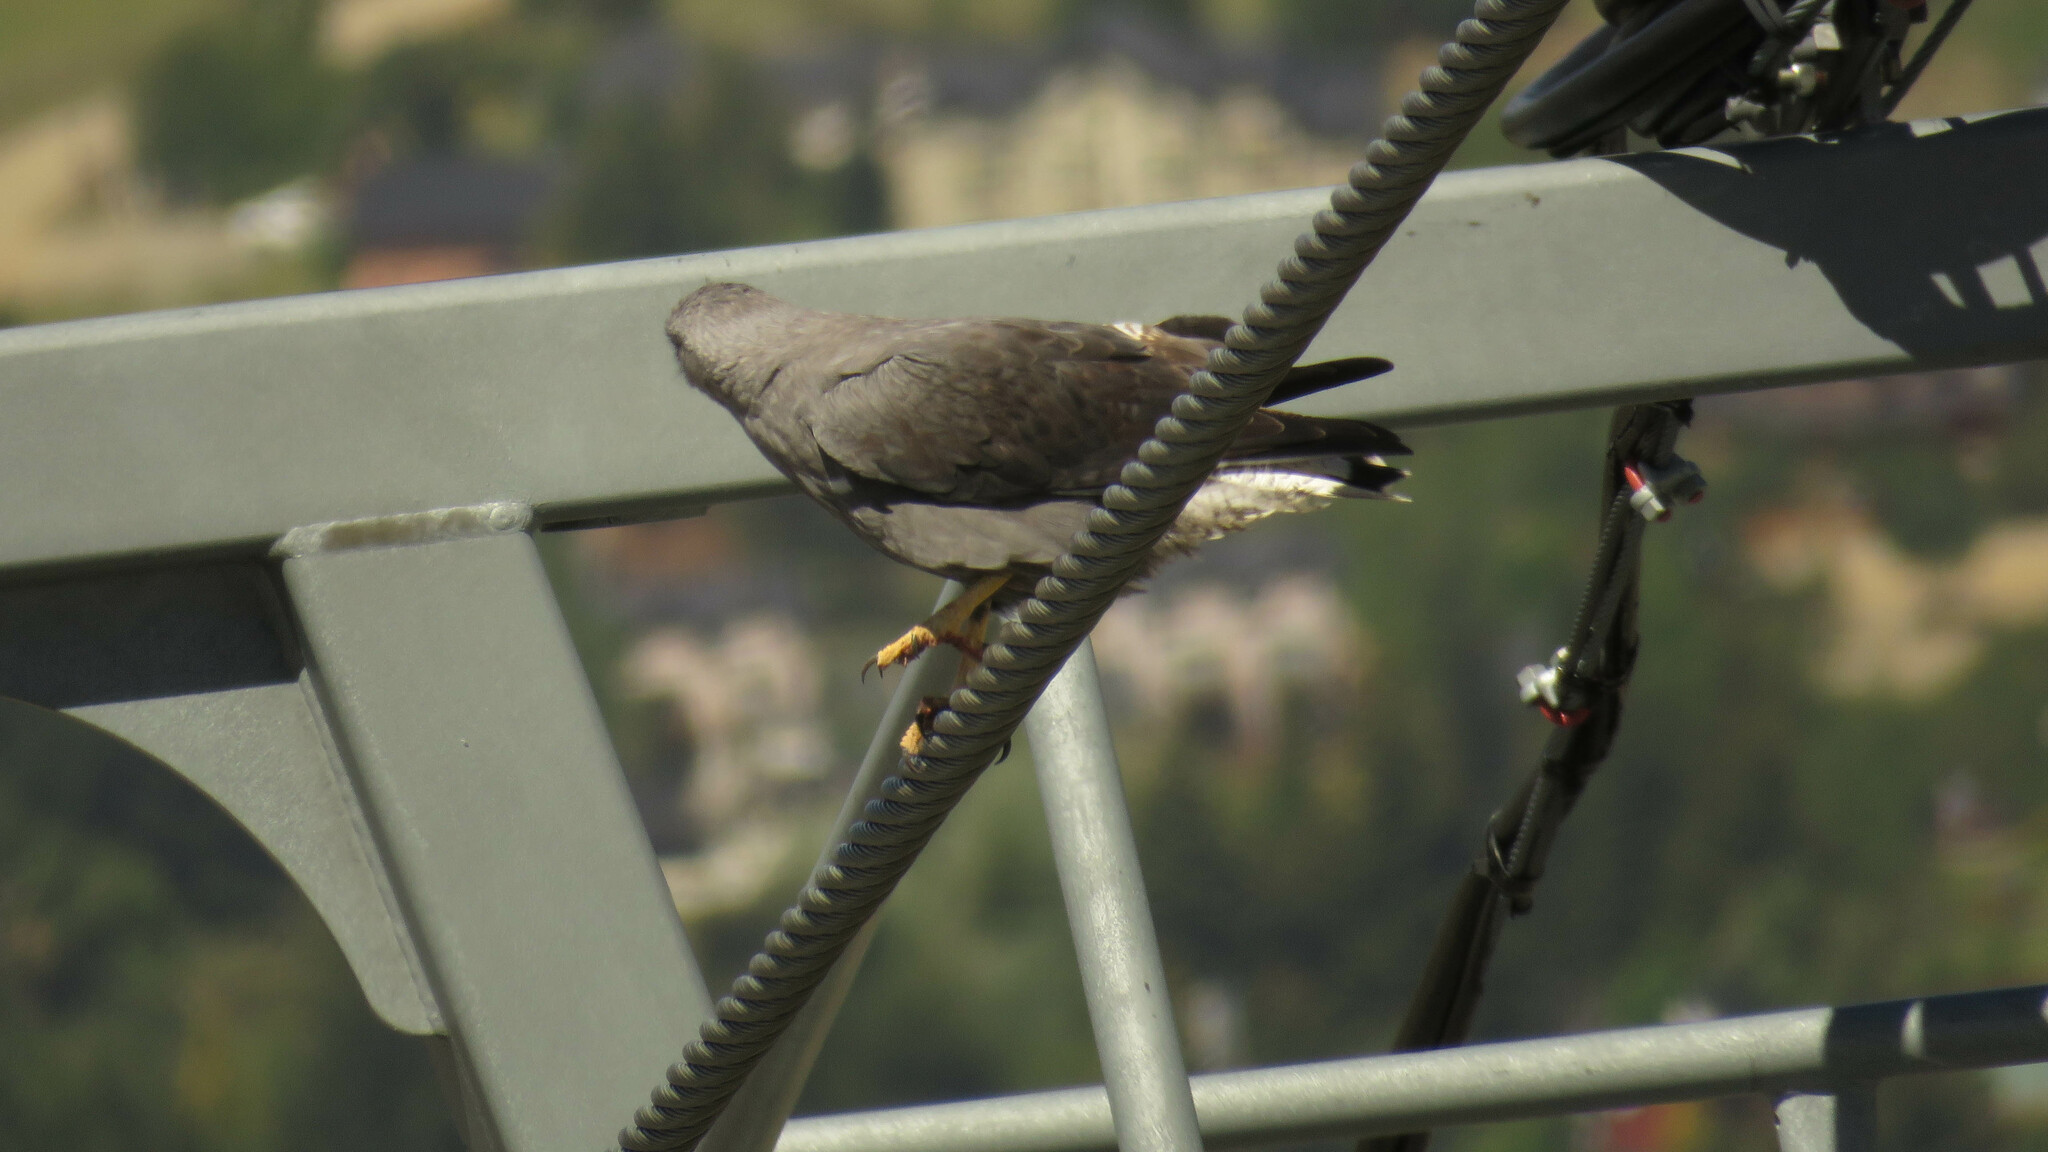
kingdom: Animalia
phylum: Chordata
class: Aves
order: Accipitriformes
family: Accipitridae
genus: Buteo
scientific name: Buteo polyosoma
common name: Variable hawk
